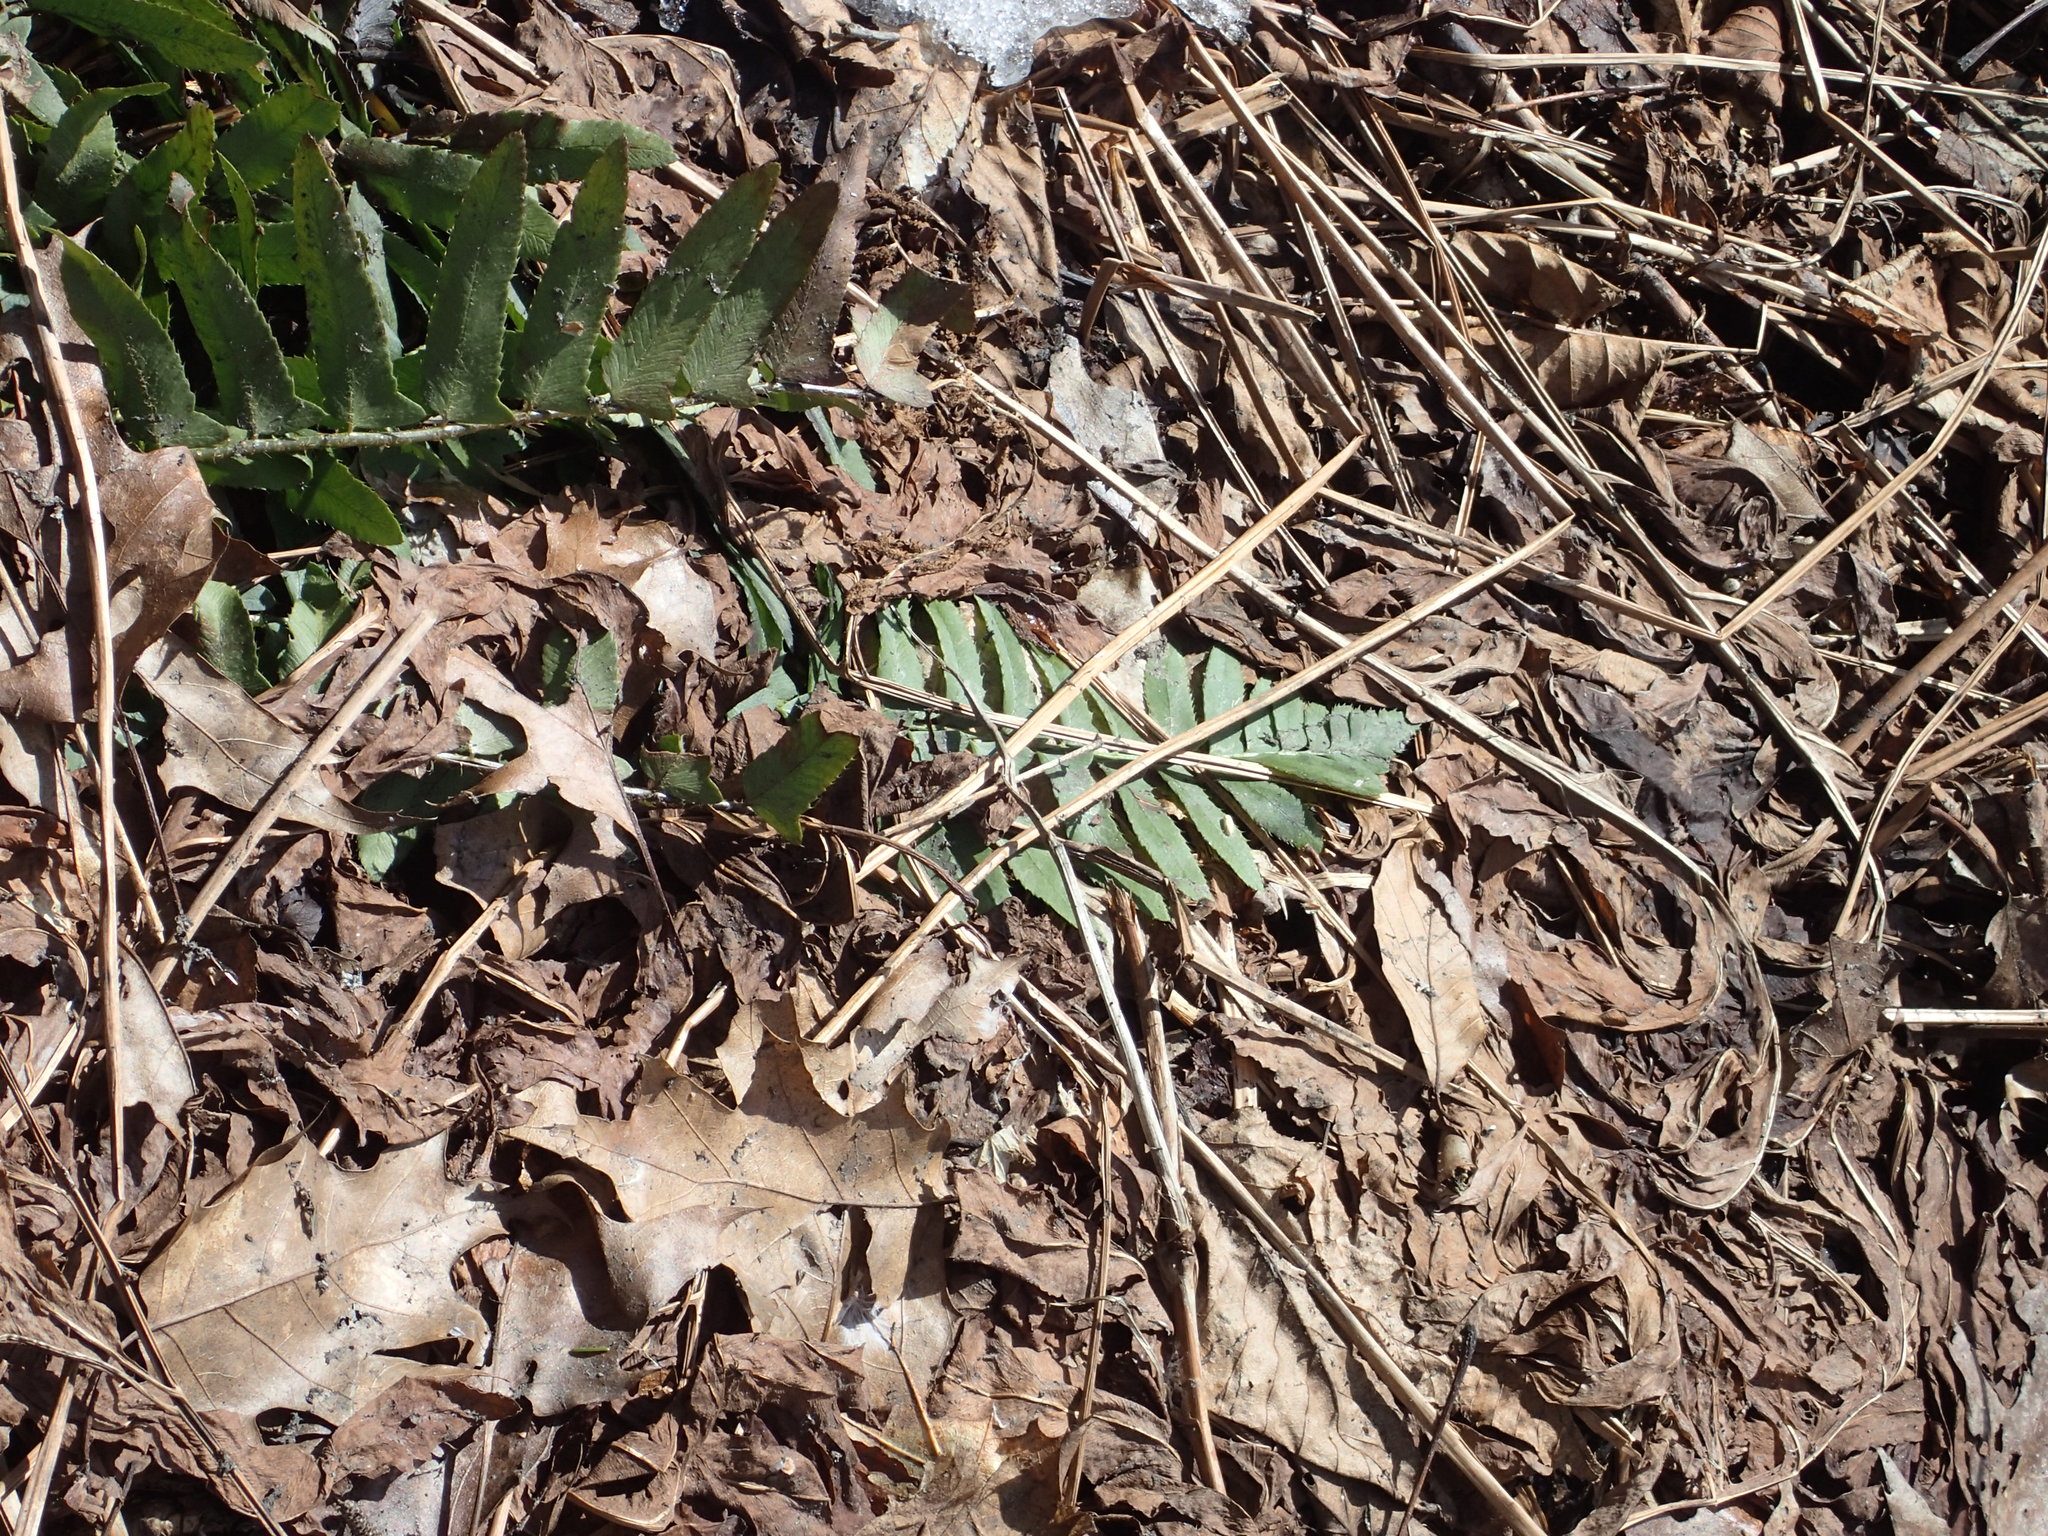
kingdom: Plantae
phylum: Tracheophyta
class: Polypodiopsida
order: Polypodiales
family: Dryopteridaceae
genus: Polystichum
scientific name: Polystichum acrostichoides
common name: Christmas fern
